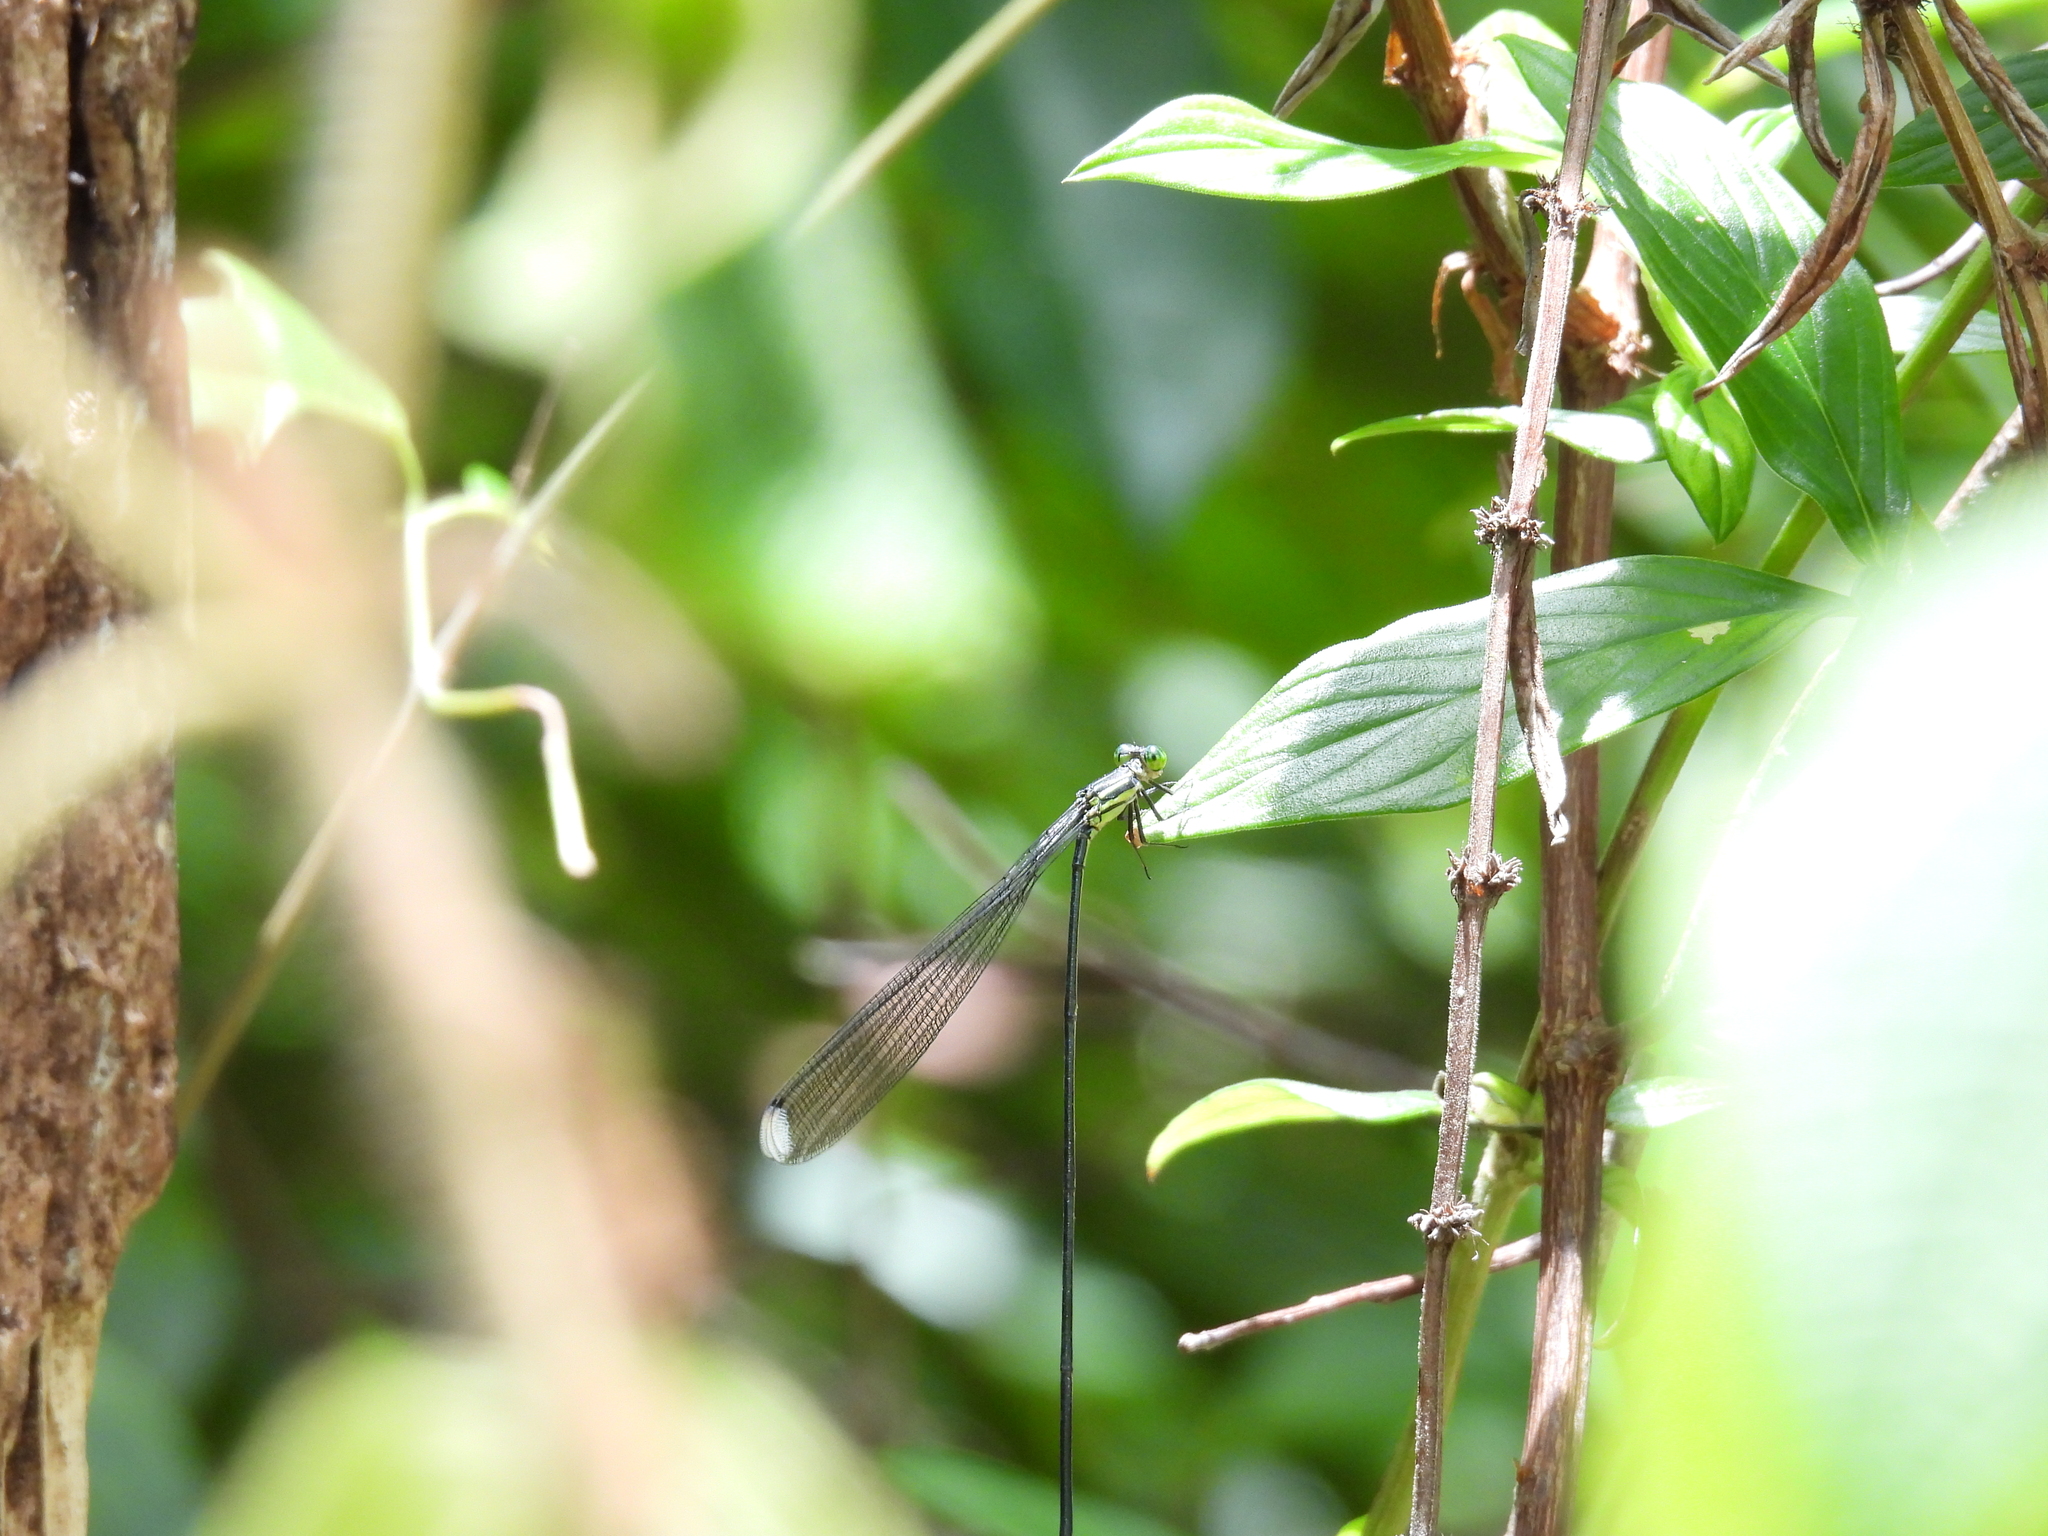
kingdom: Animalia
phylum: Arthropoda
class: Insecta
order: Odonata
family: Coenagrionidae
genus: Mecistogaster
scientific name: Mecistogaster linearis
